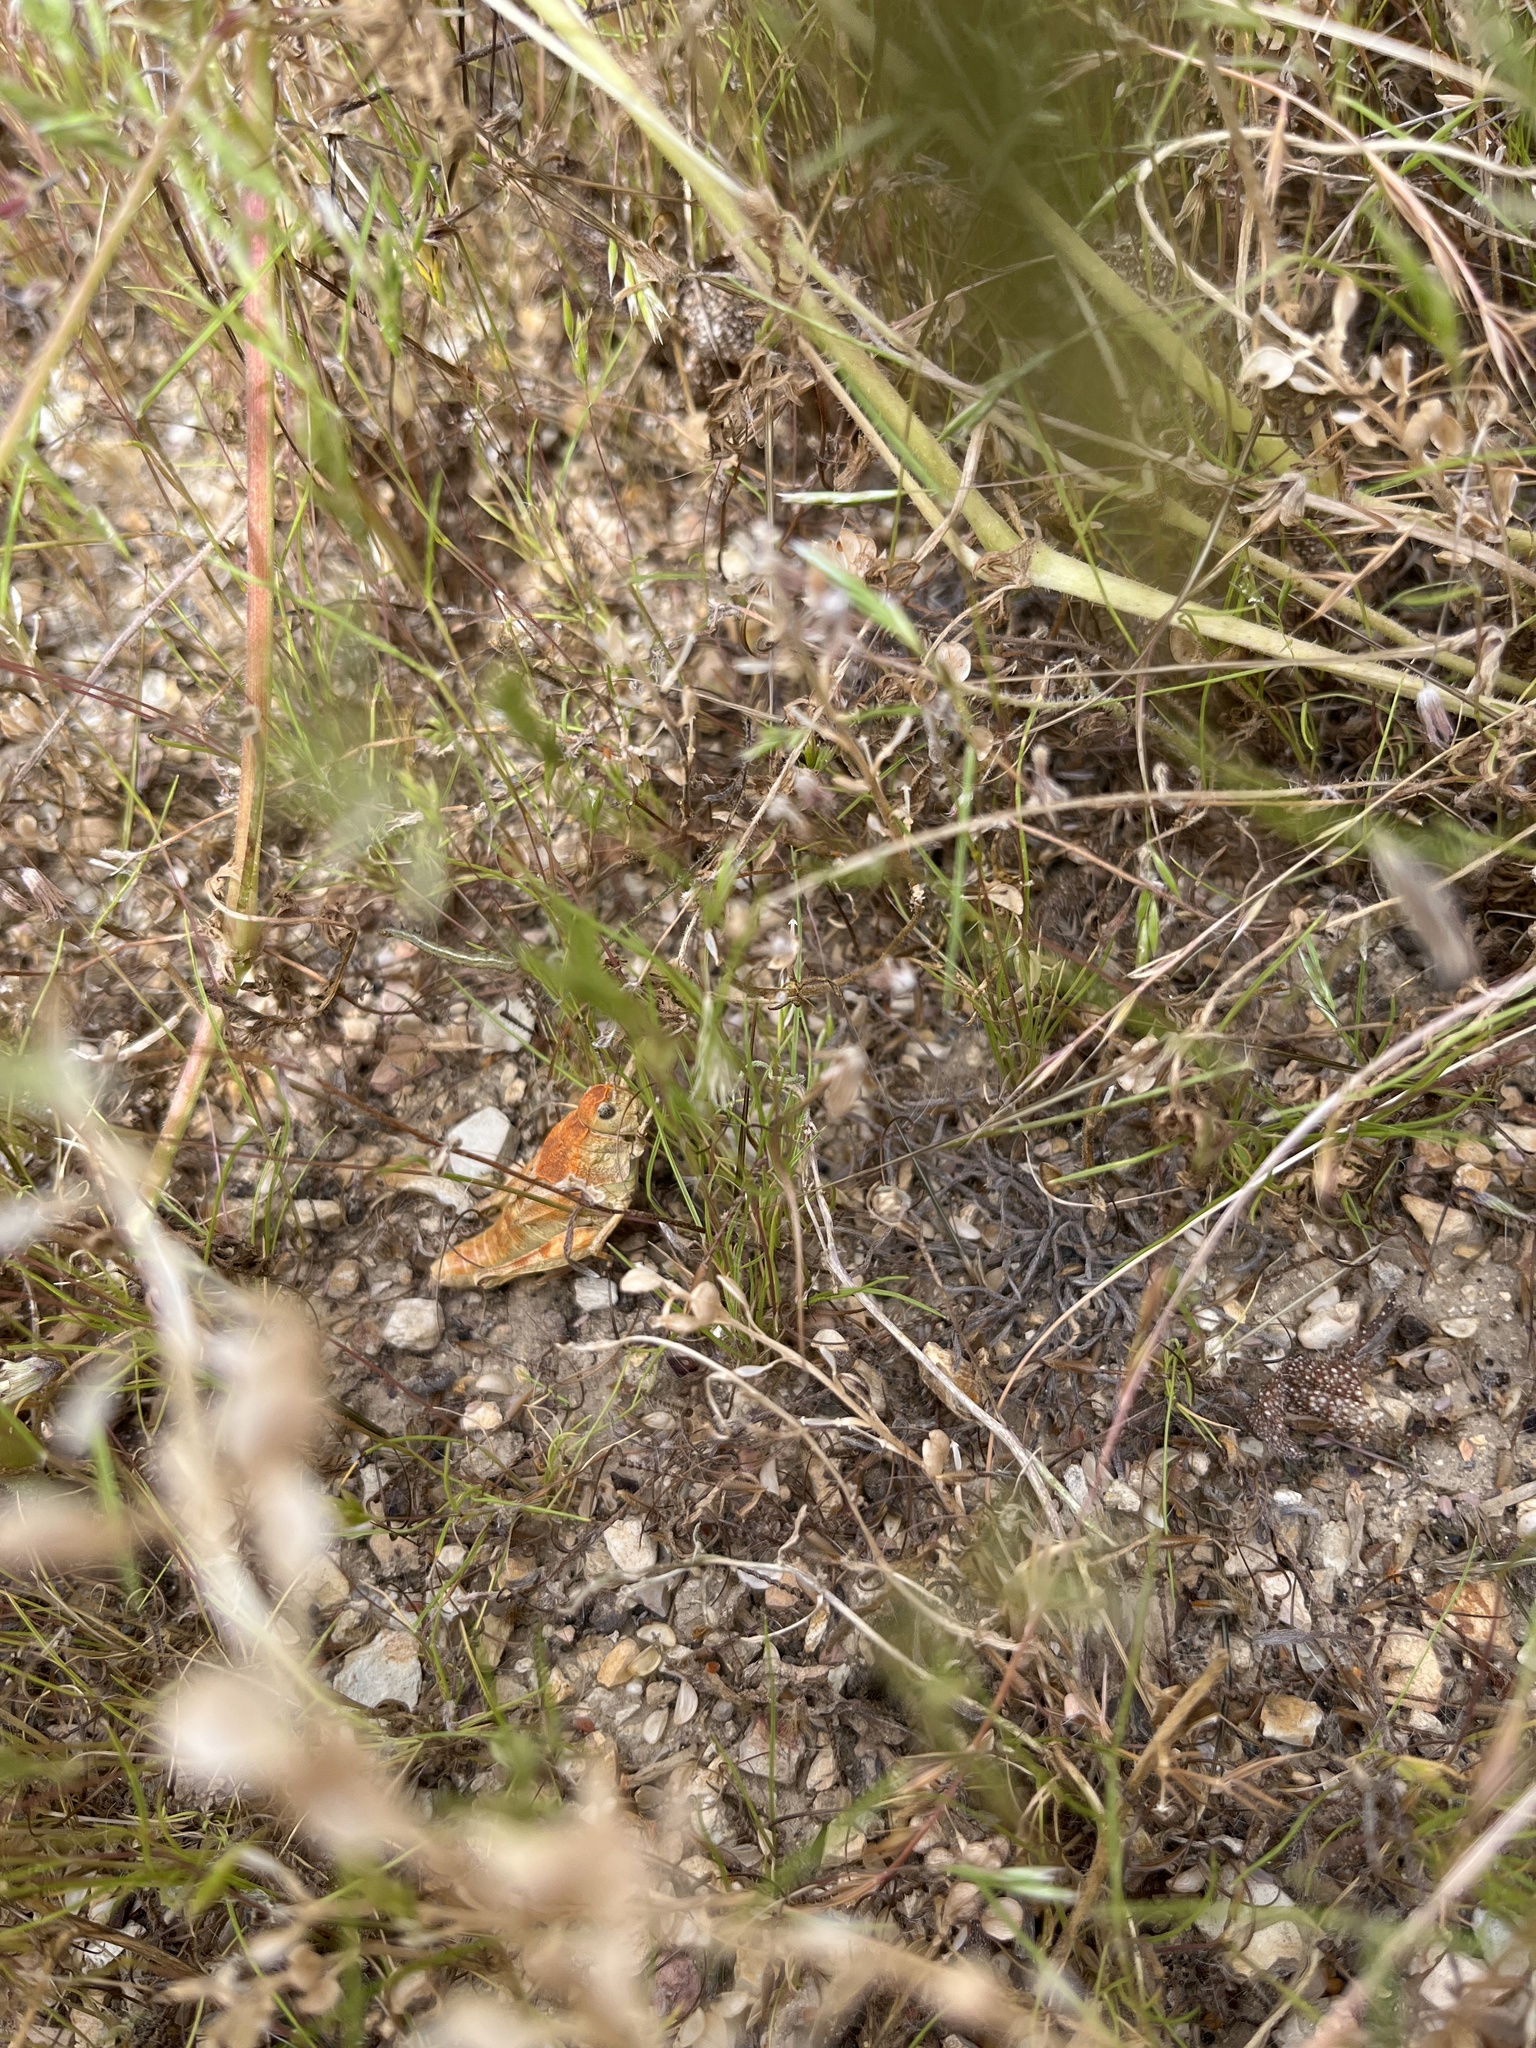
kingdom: Animalia
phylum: Arthropoda
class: Insecta
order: Orthoptera
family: Acrididae
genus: Esselenia
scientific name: Esselenia vanduzeei
